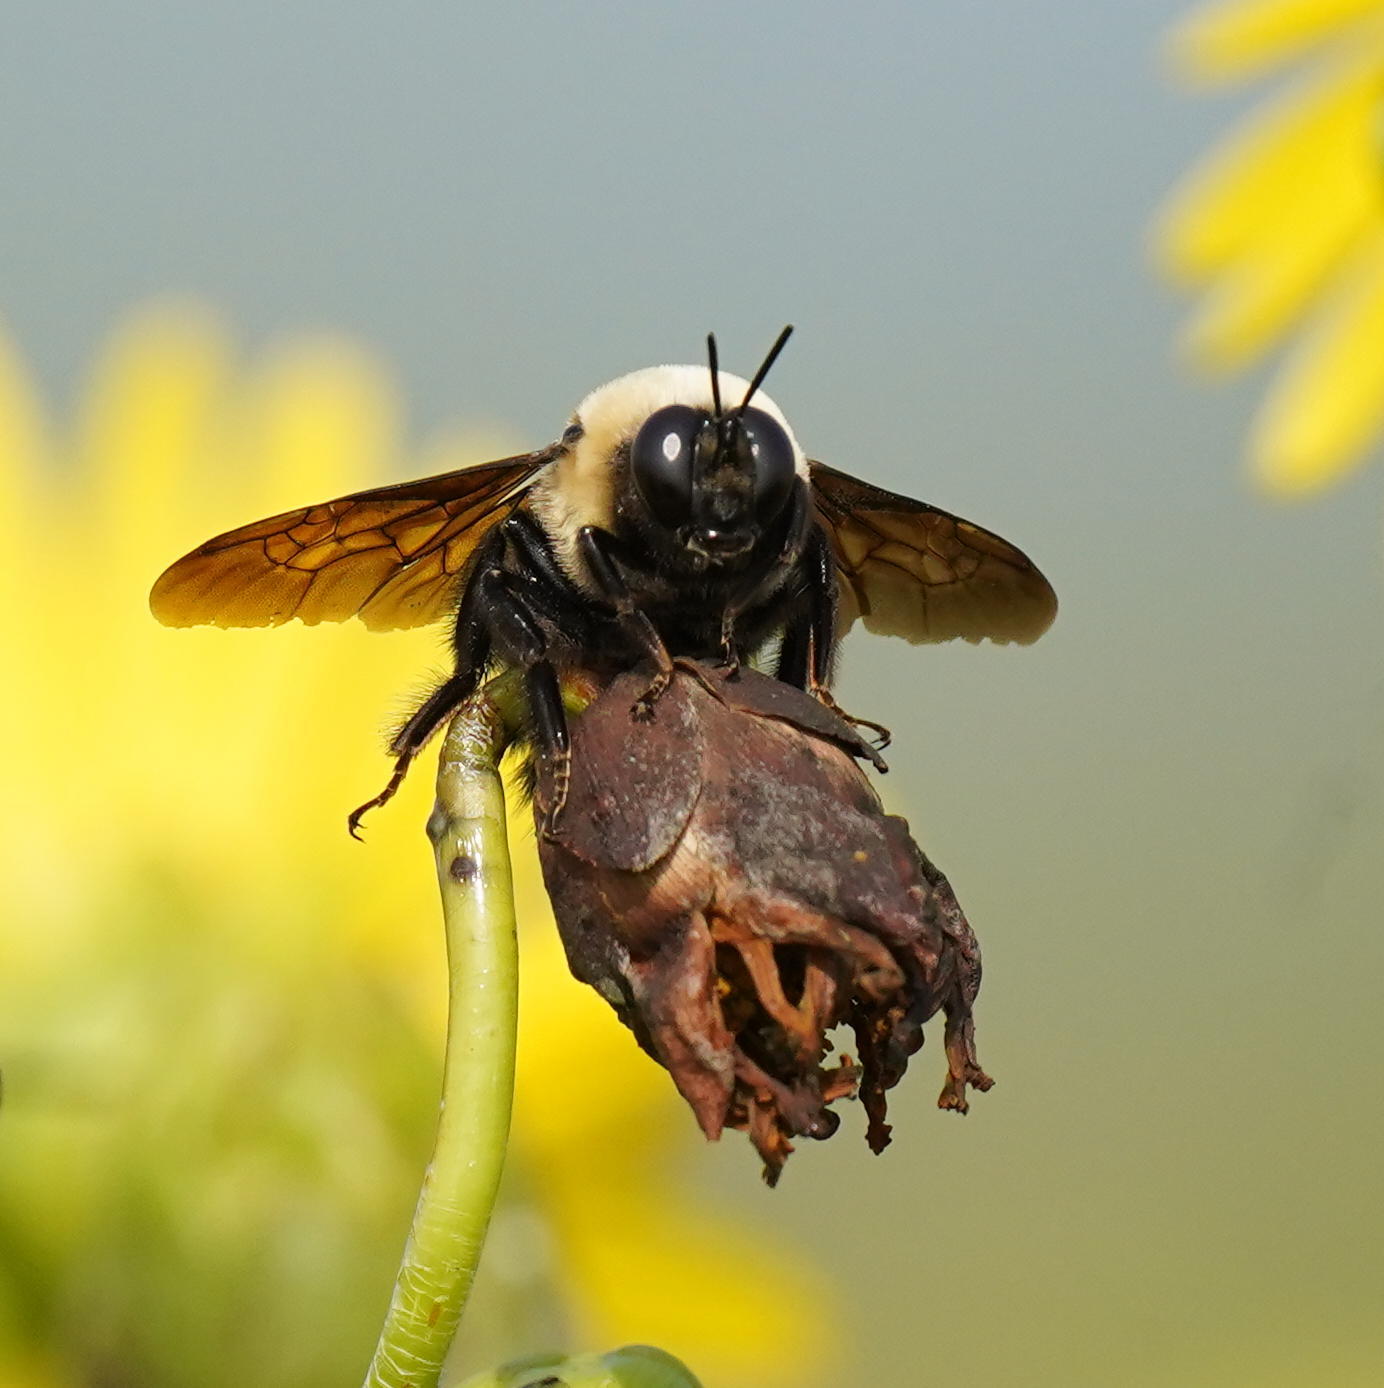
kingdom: Animalia
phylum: Arthropoda
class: Insecta
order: Hymenoptera
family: Apidae
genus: Bombus
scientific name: Bombus griseocollis
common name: Brown-belted bumble bee
